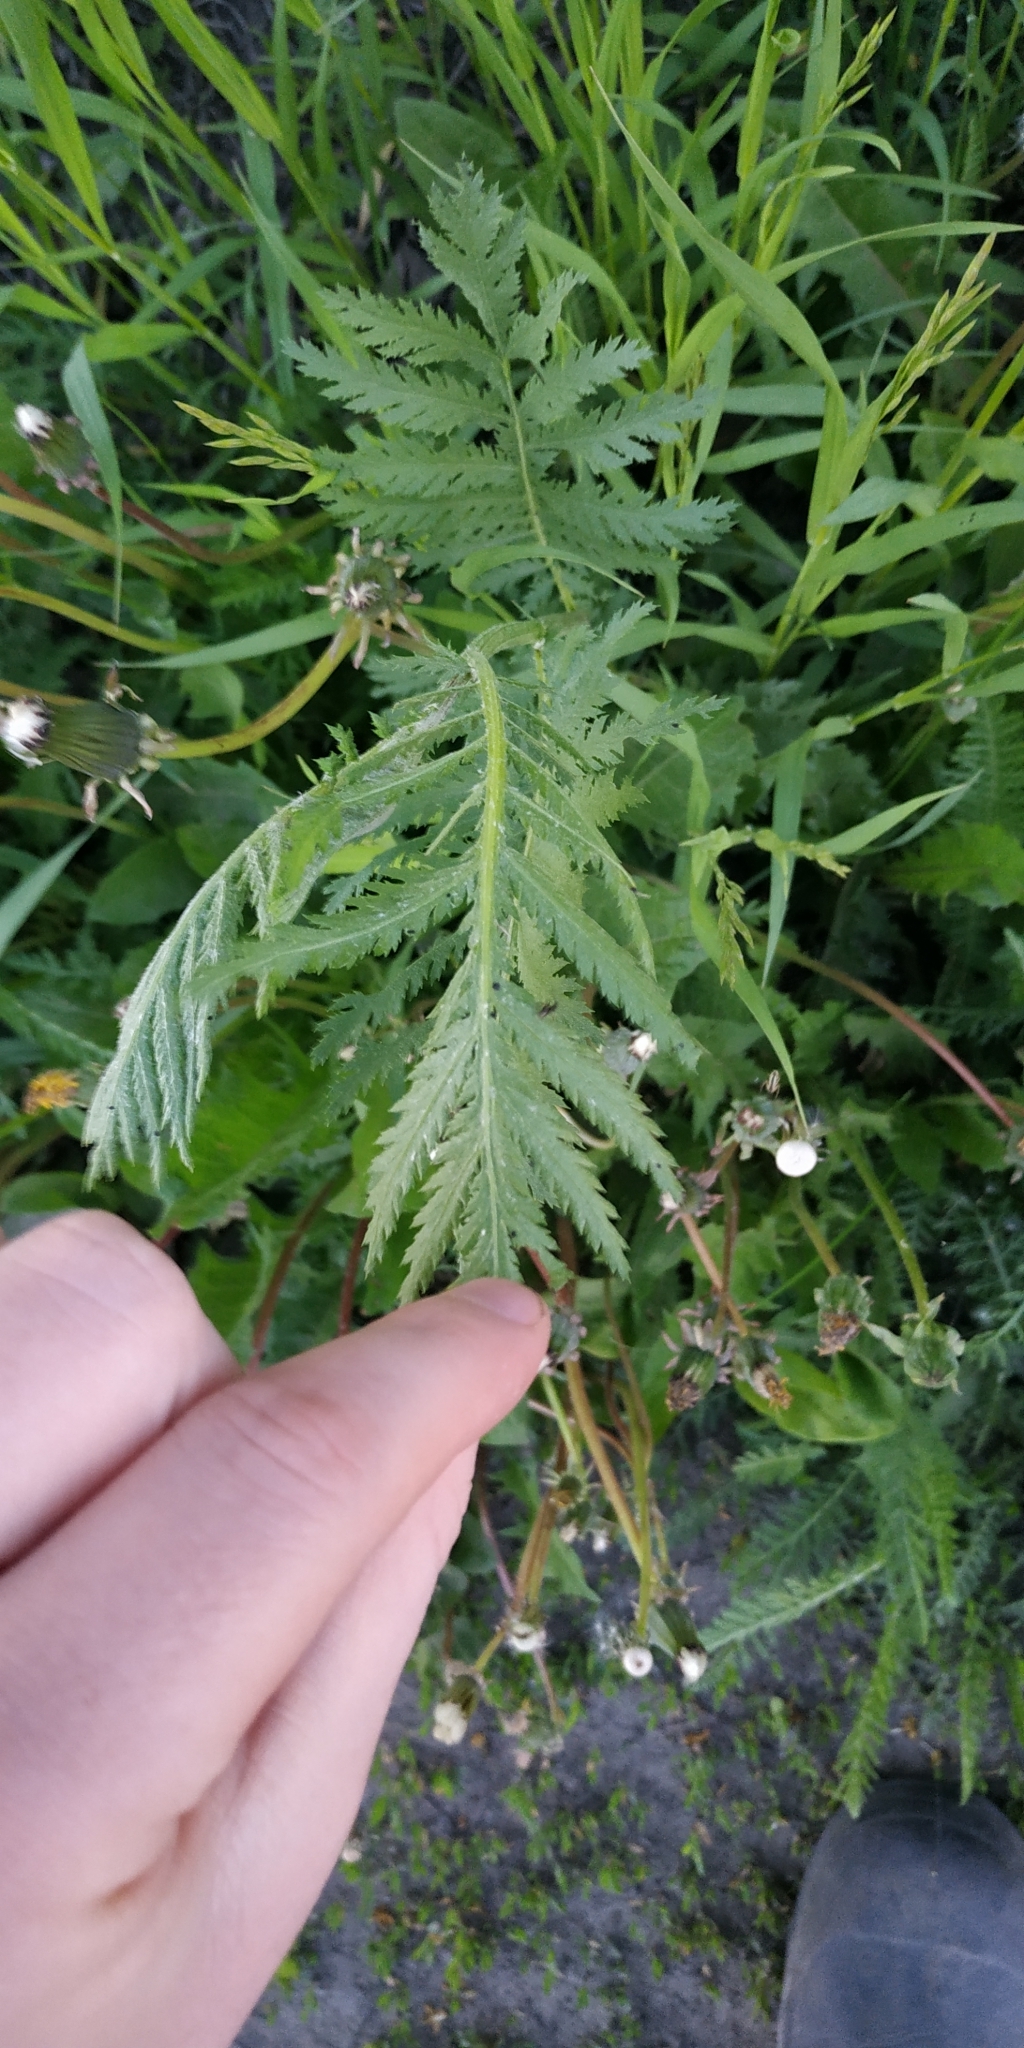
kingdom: Plantae
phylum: Tracheophyta
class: Magnoliopsida
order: Asterales
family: Asteraceae
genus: Tanacetum
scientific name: Tanacetum vulgare
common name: Common tansy
